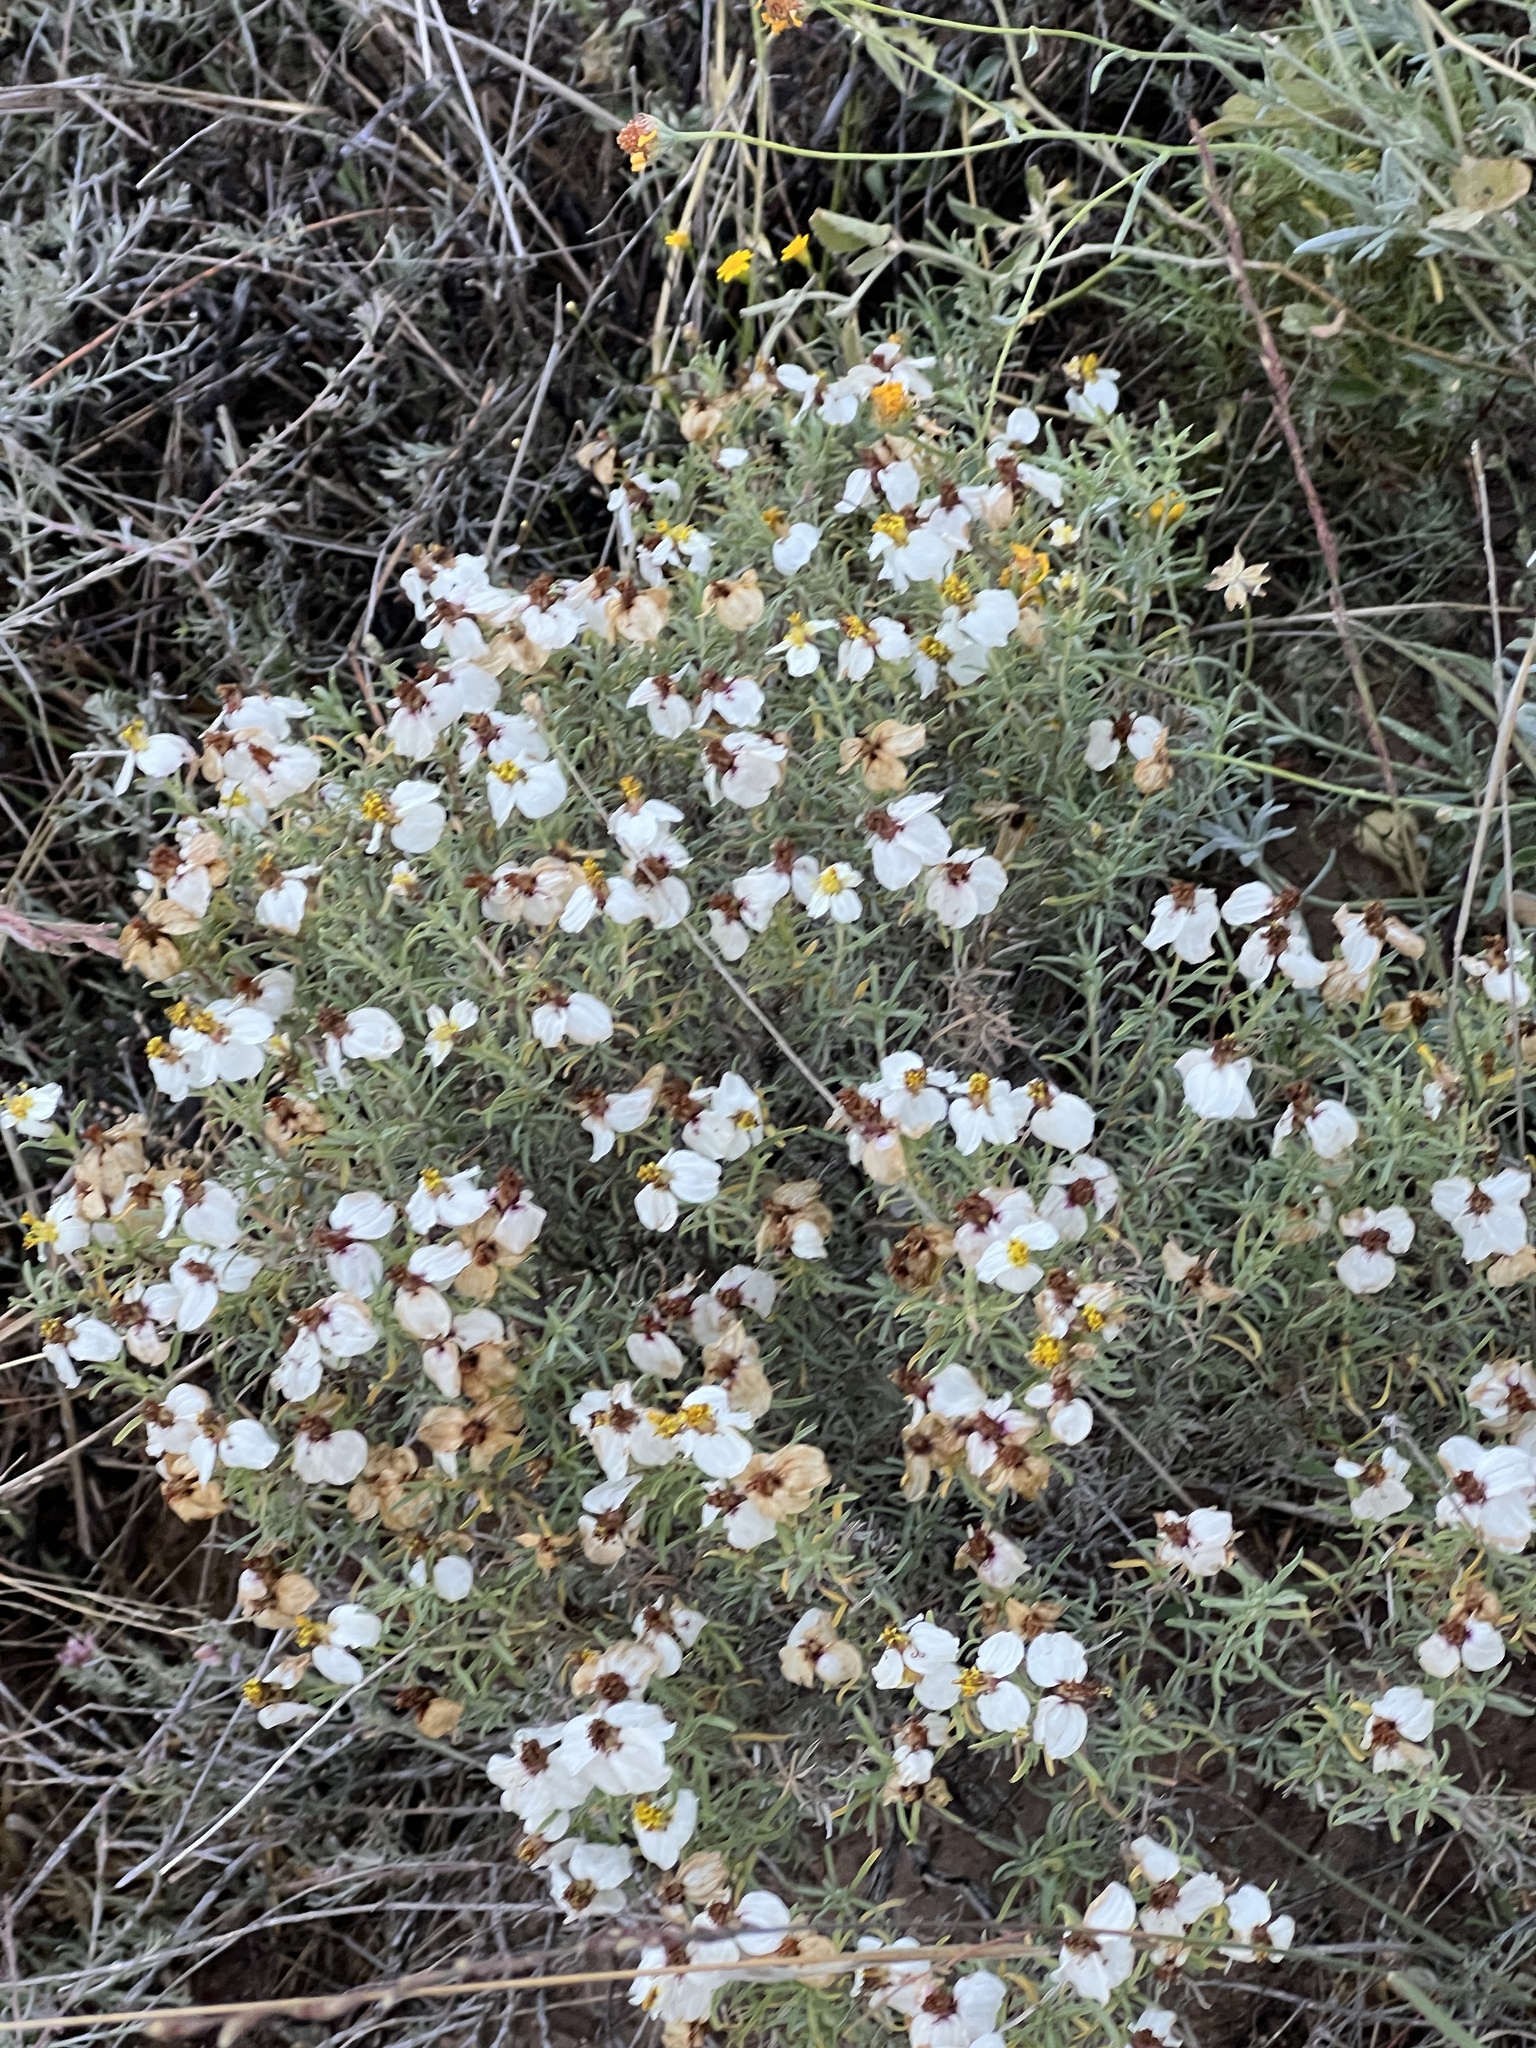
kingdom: Plantae
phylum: Tracheophyta
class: Magnoliopsida
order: Asterales
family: Asteraceae
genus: Zinnia
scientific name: Zinnia acerosa
